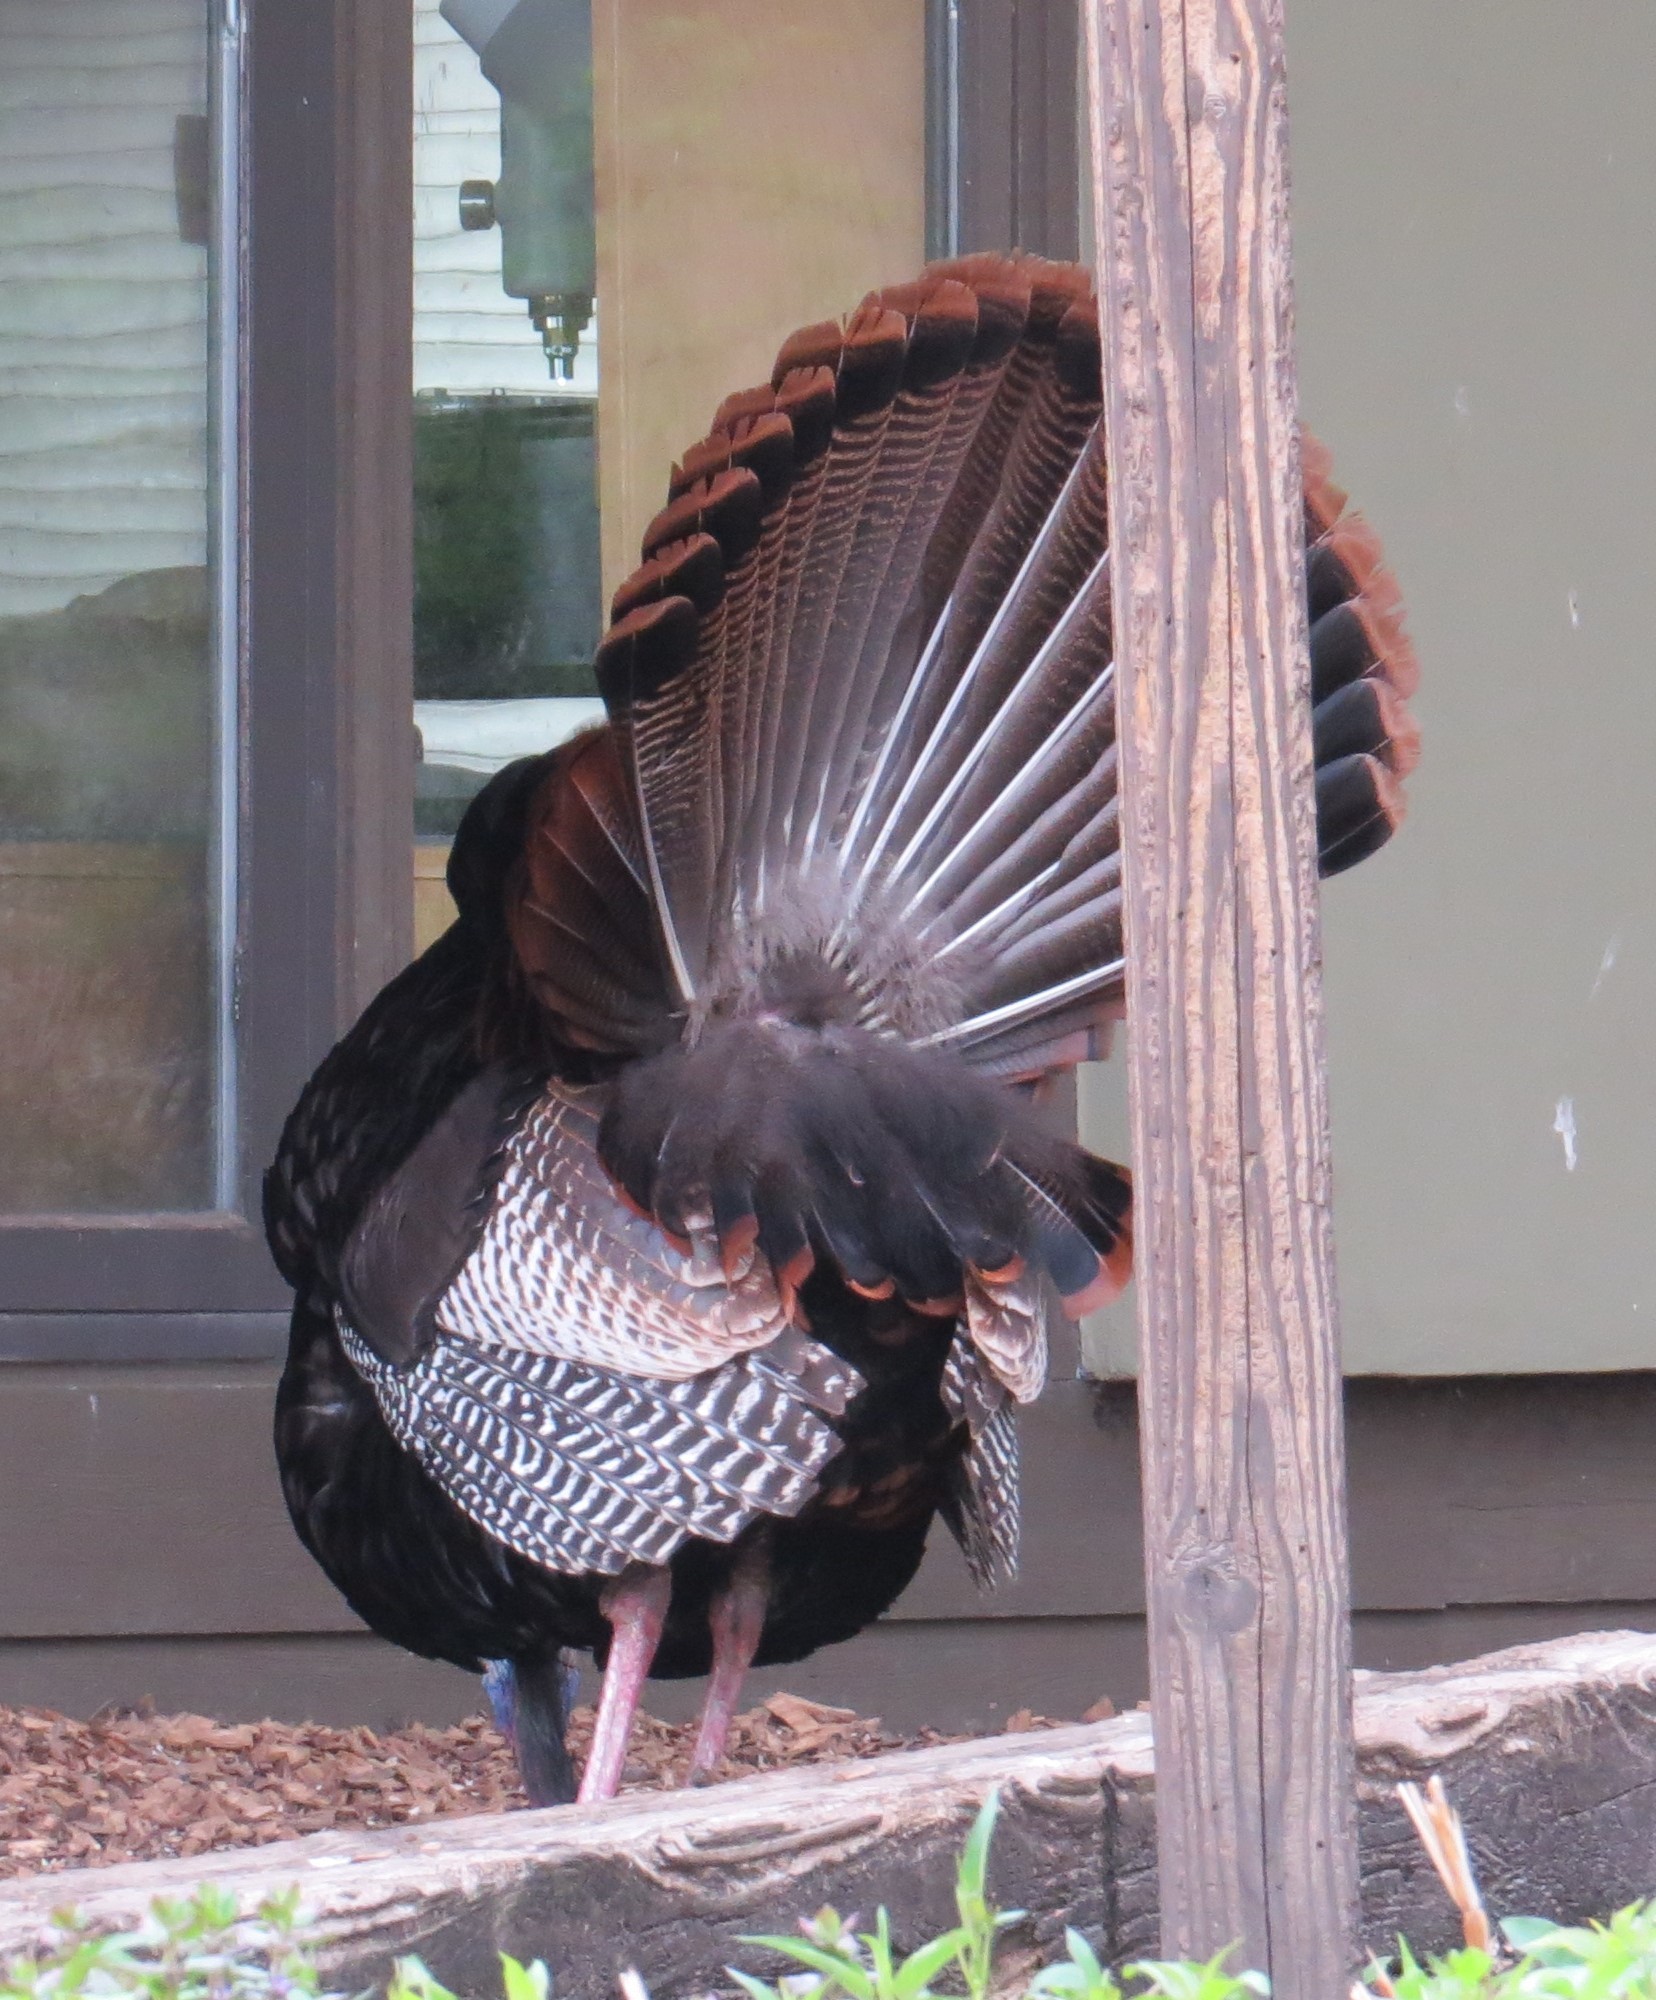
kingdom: Animalia
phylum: Chordata
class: Aves
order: Galliformes
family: Phasianidae
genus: Meleagris
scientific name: Meleagris gallopavo
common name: Wild turkey
